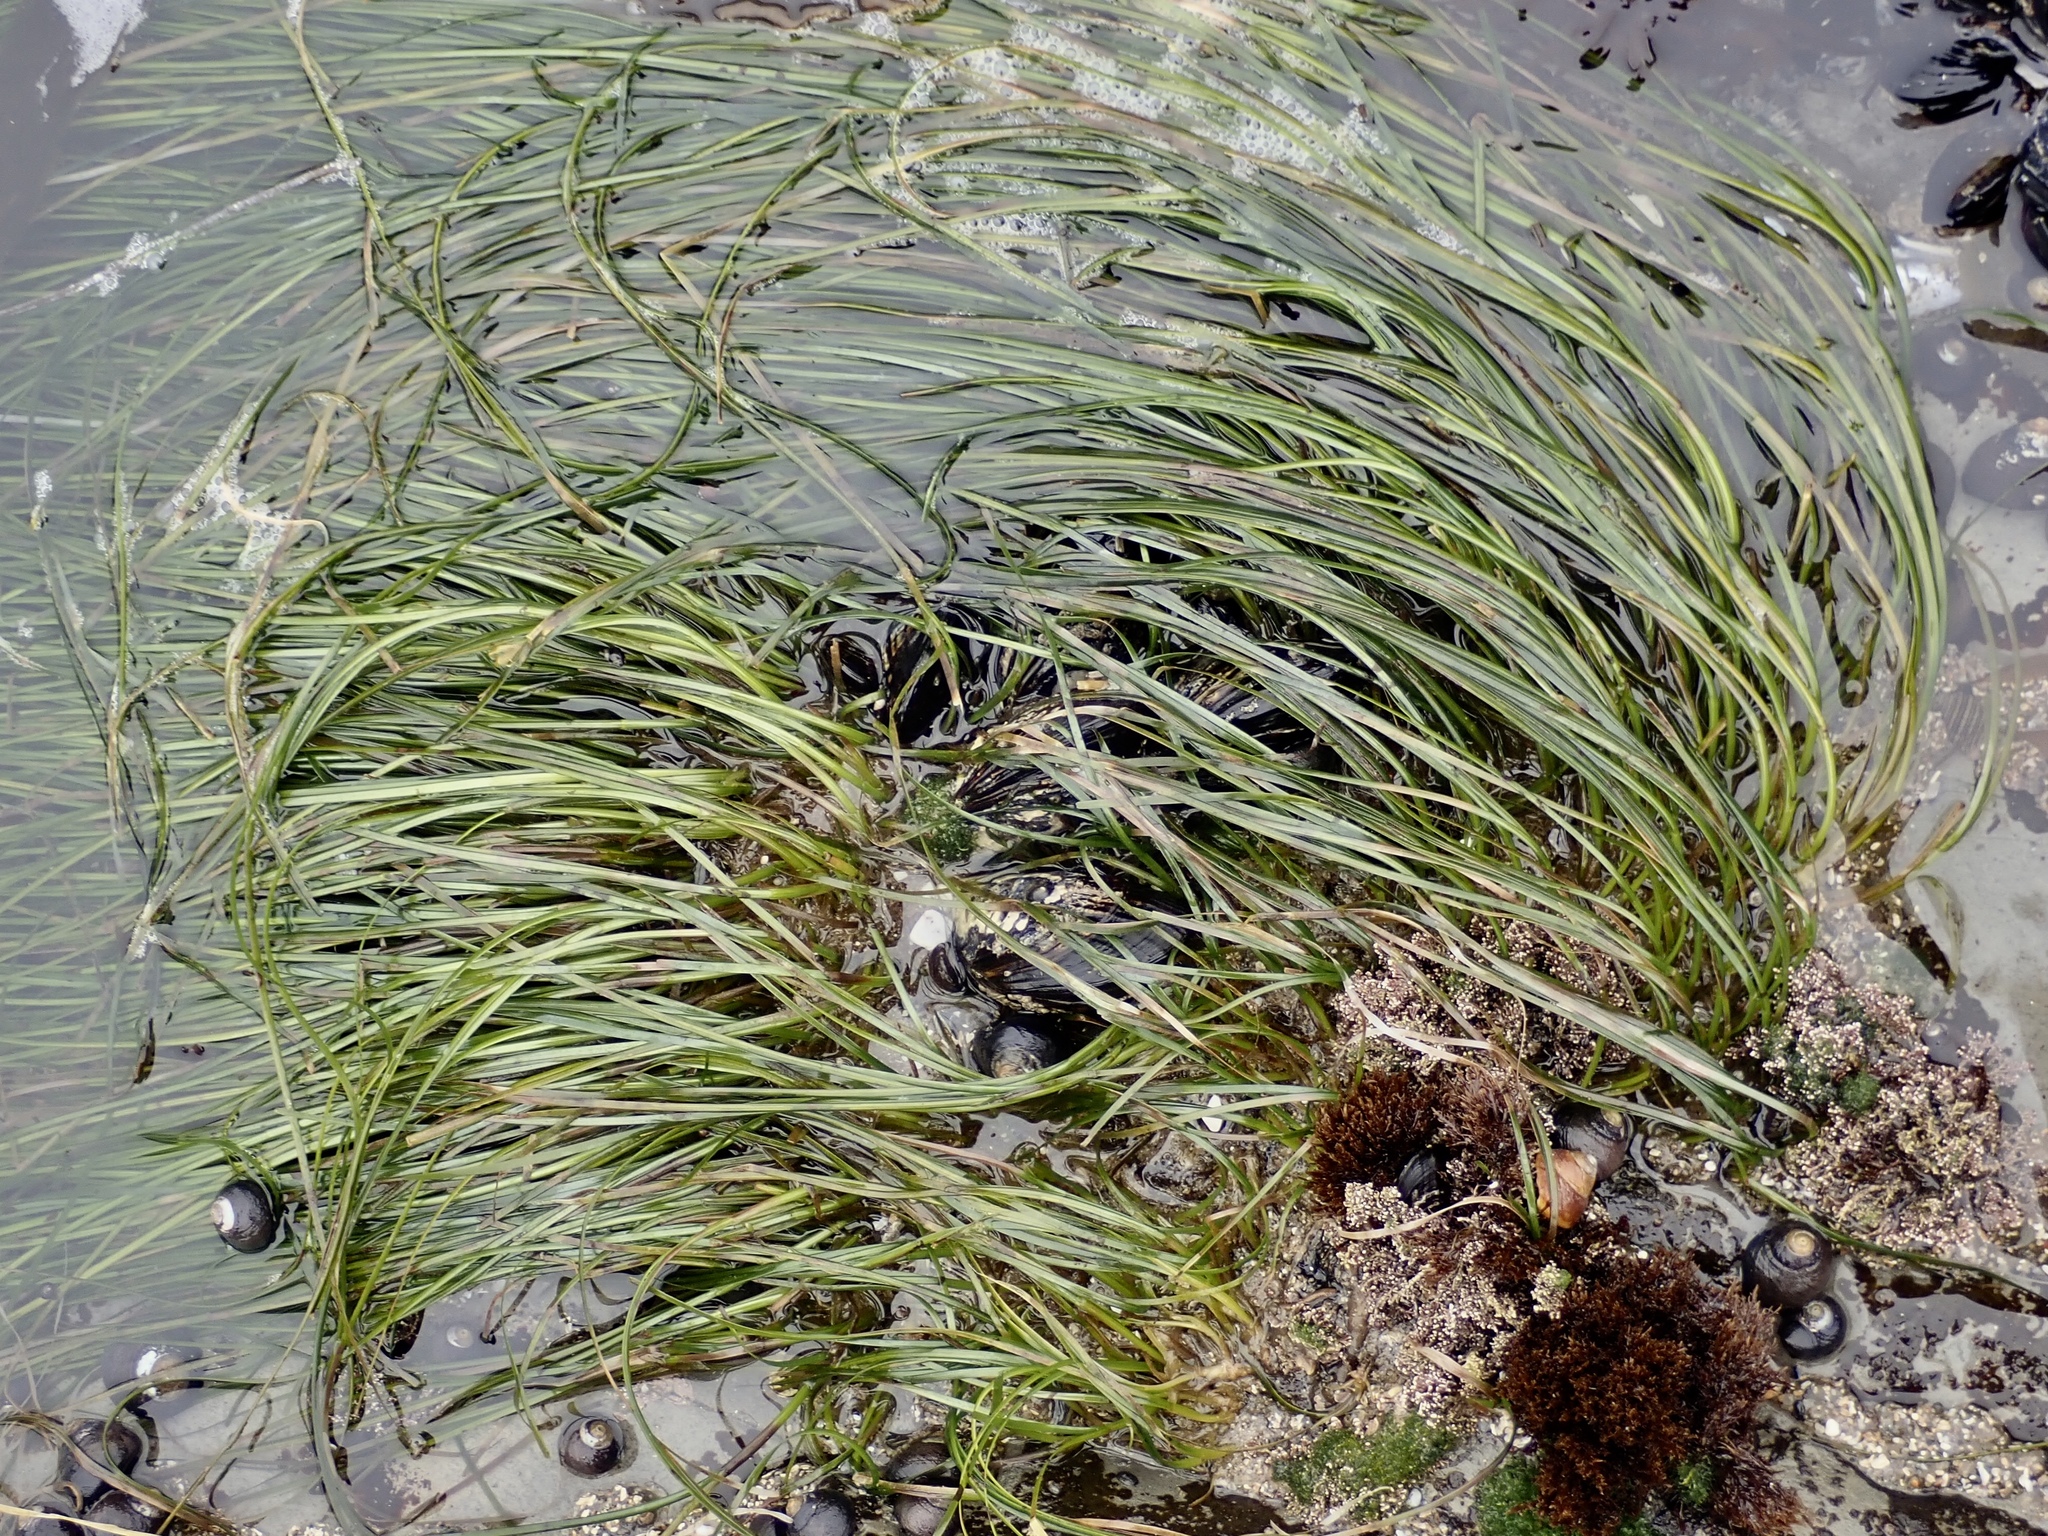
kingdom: Plantae
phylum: Tracheophyta
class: Liliopsida
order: Alismatales
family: Zosteraceae
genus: Phyllospadix
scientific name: Phyllospadix torreyi
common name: Surfgrass
